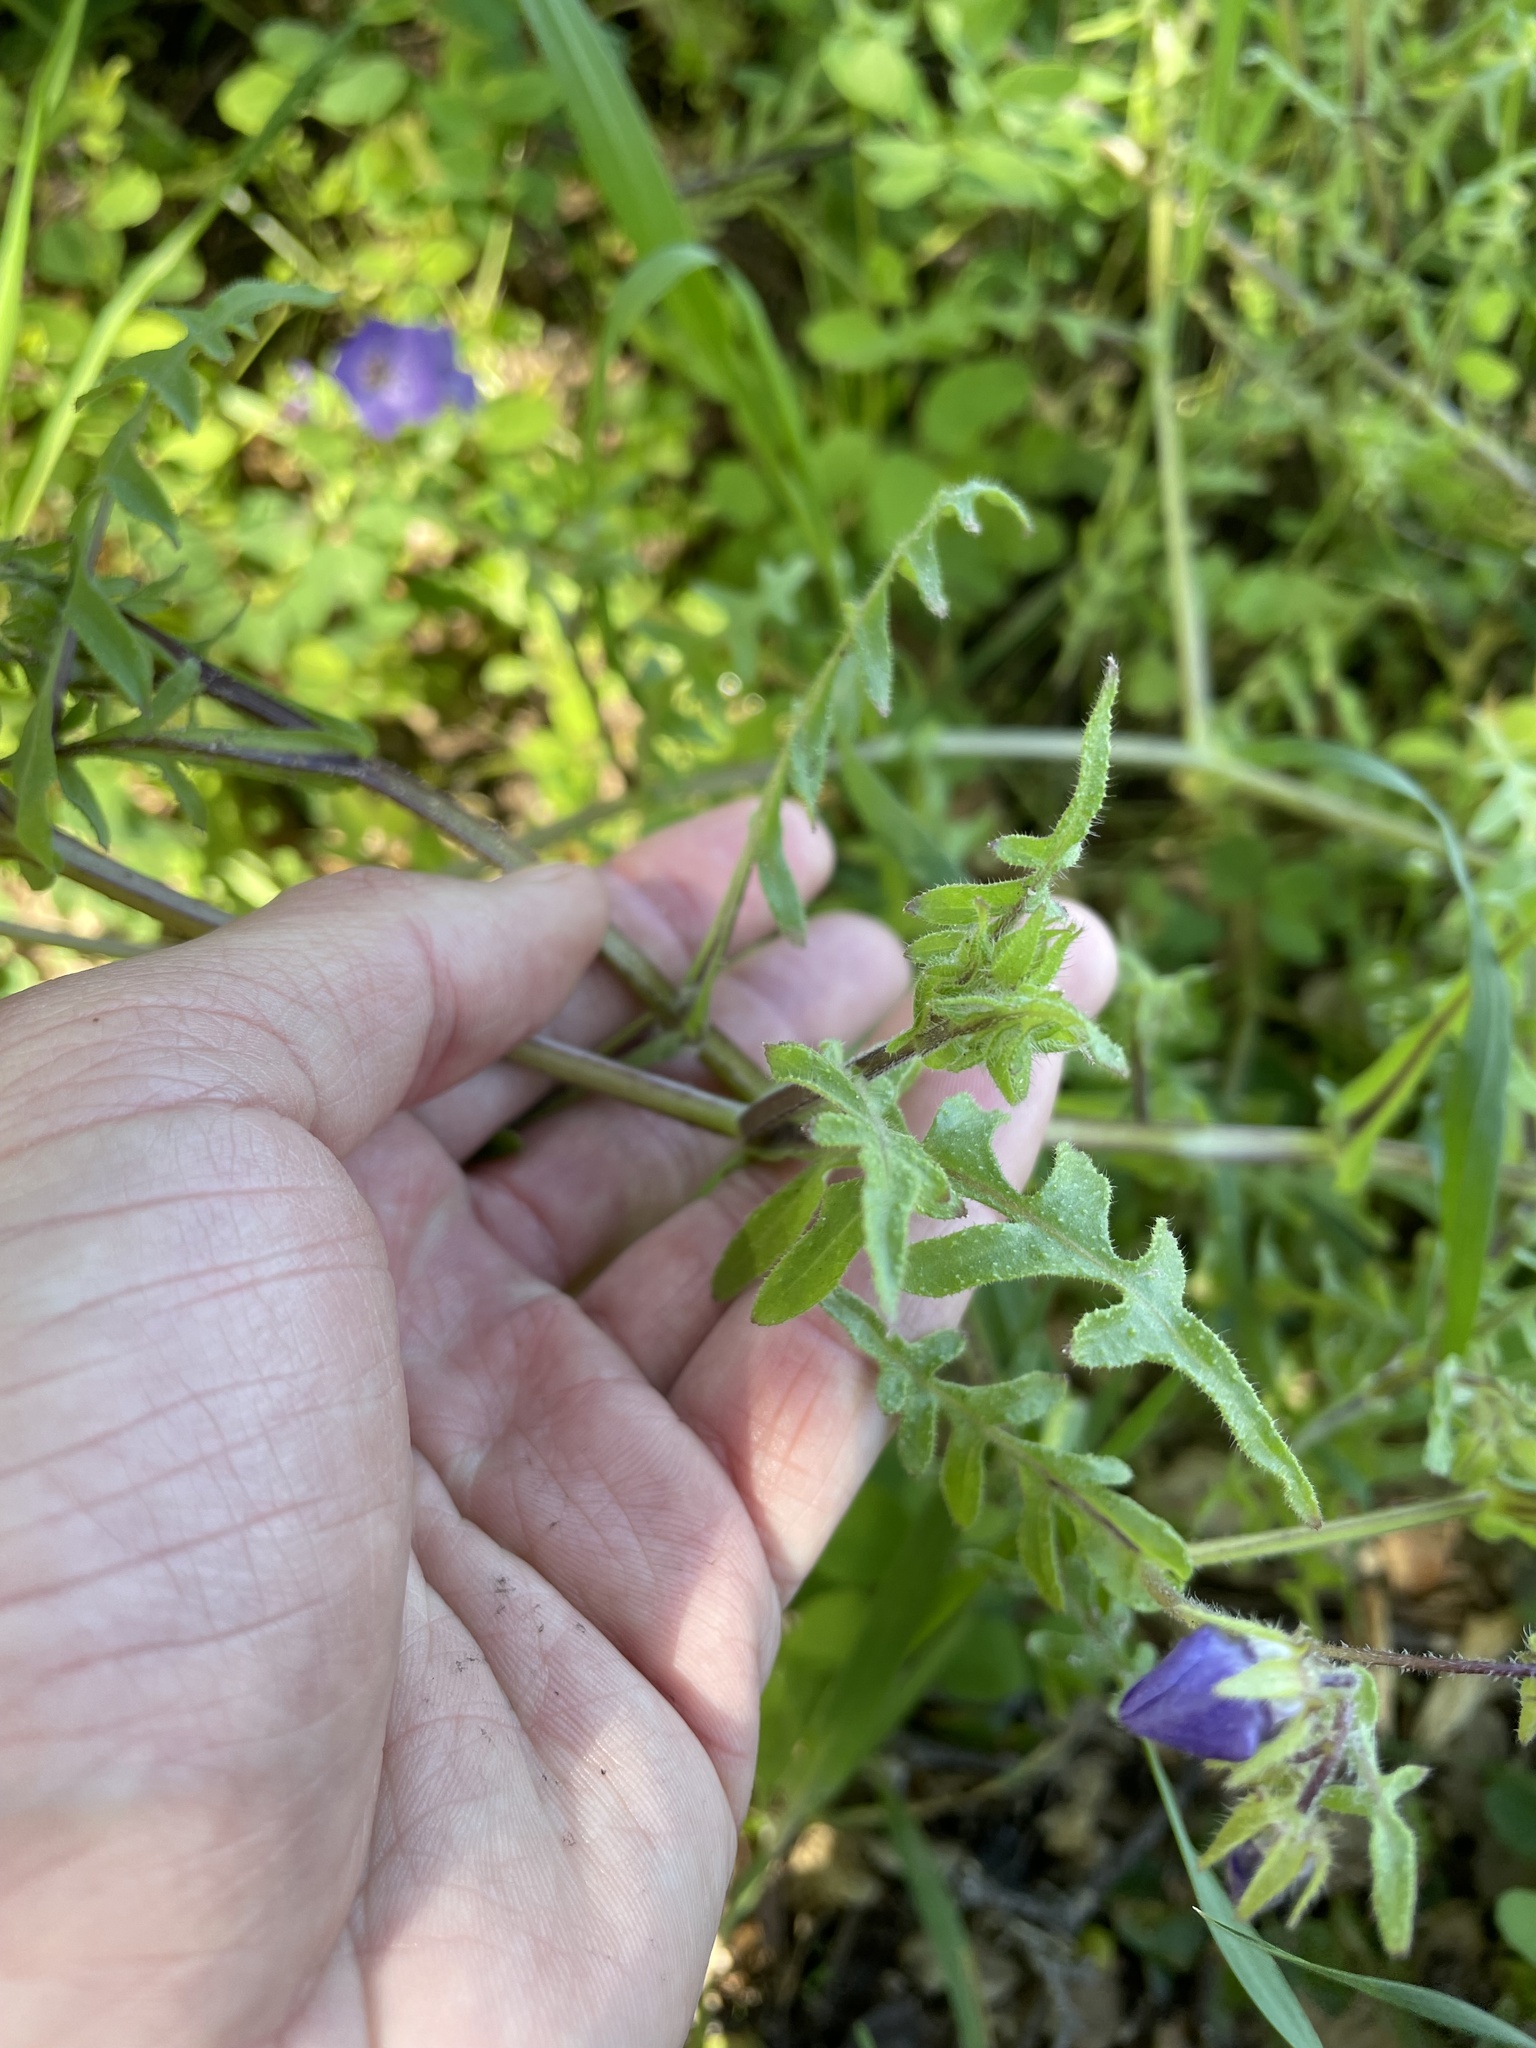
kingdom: Plantae
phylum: Tracheophyta
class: Magnoliopsida
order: Boraginales
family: Hydrophyllaceae
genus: Pholistoma
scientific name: Pholistoma auritum
